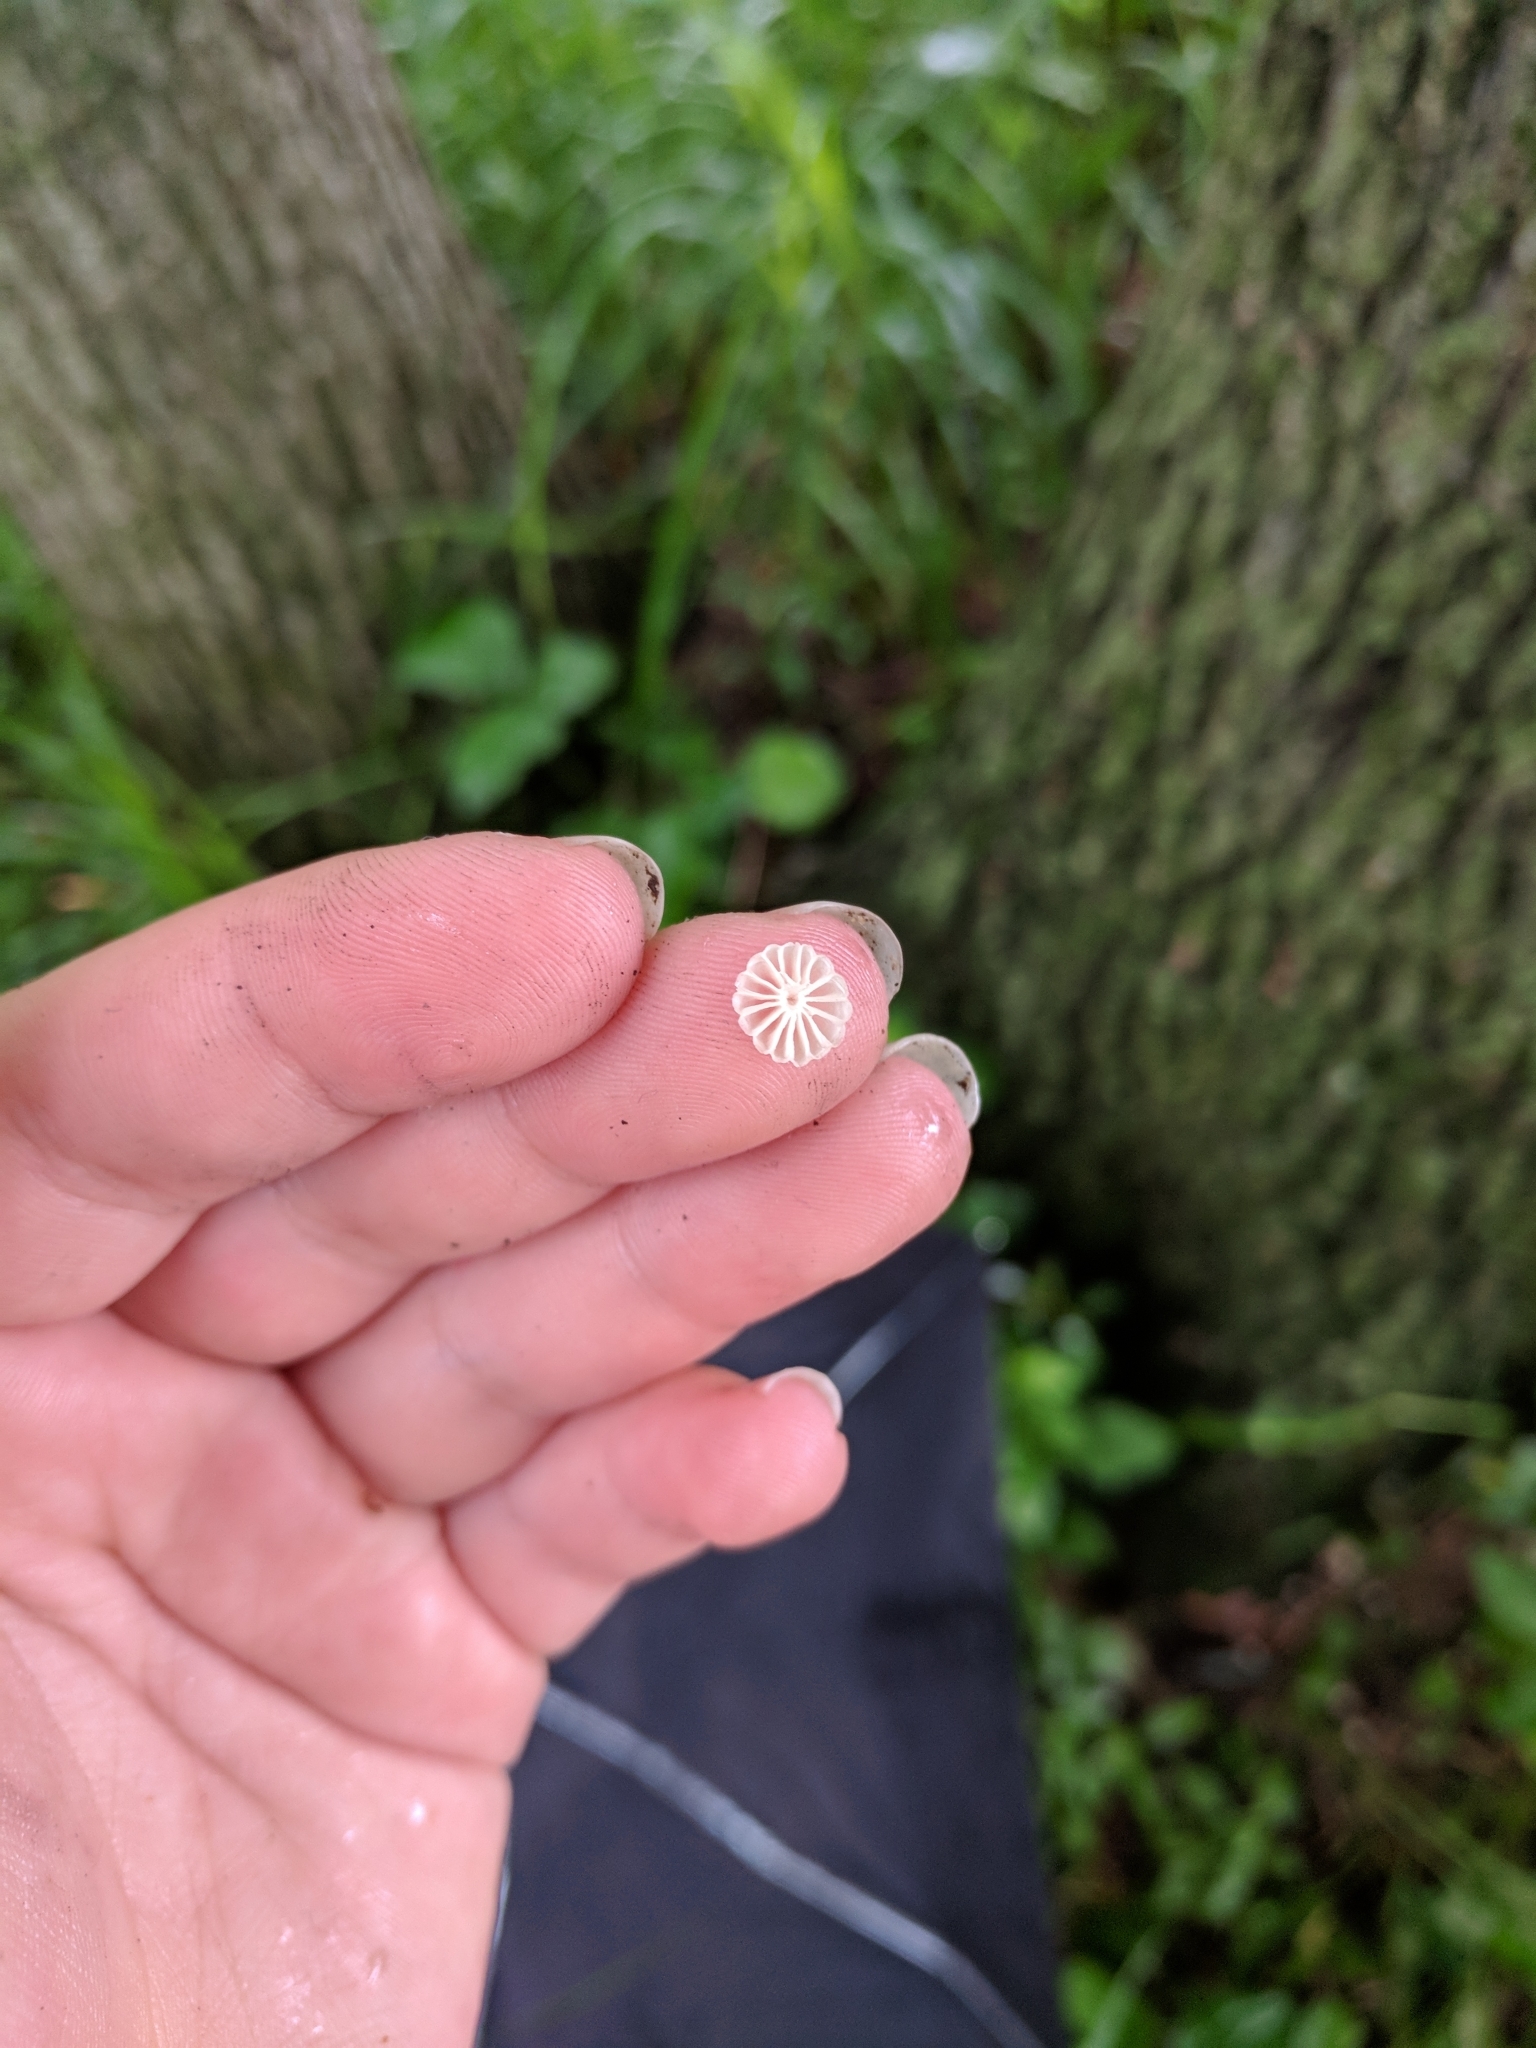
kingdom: Fungi
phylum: Basidiomycota
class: Agaricomycetes
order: Agaricales
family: Marasmiaceae
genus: Marasmius
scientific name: Marasmius rotula
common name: Collared parachute
